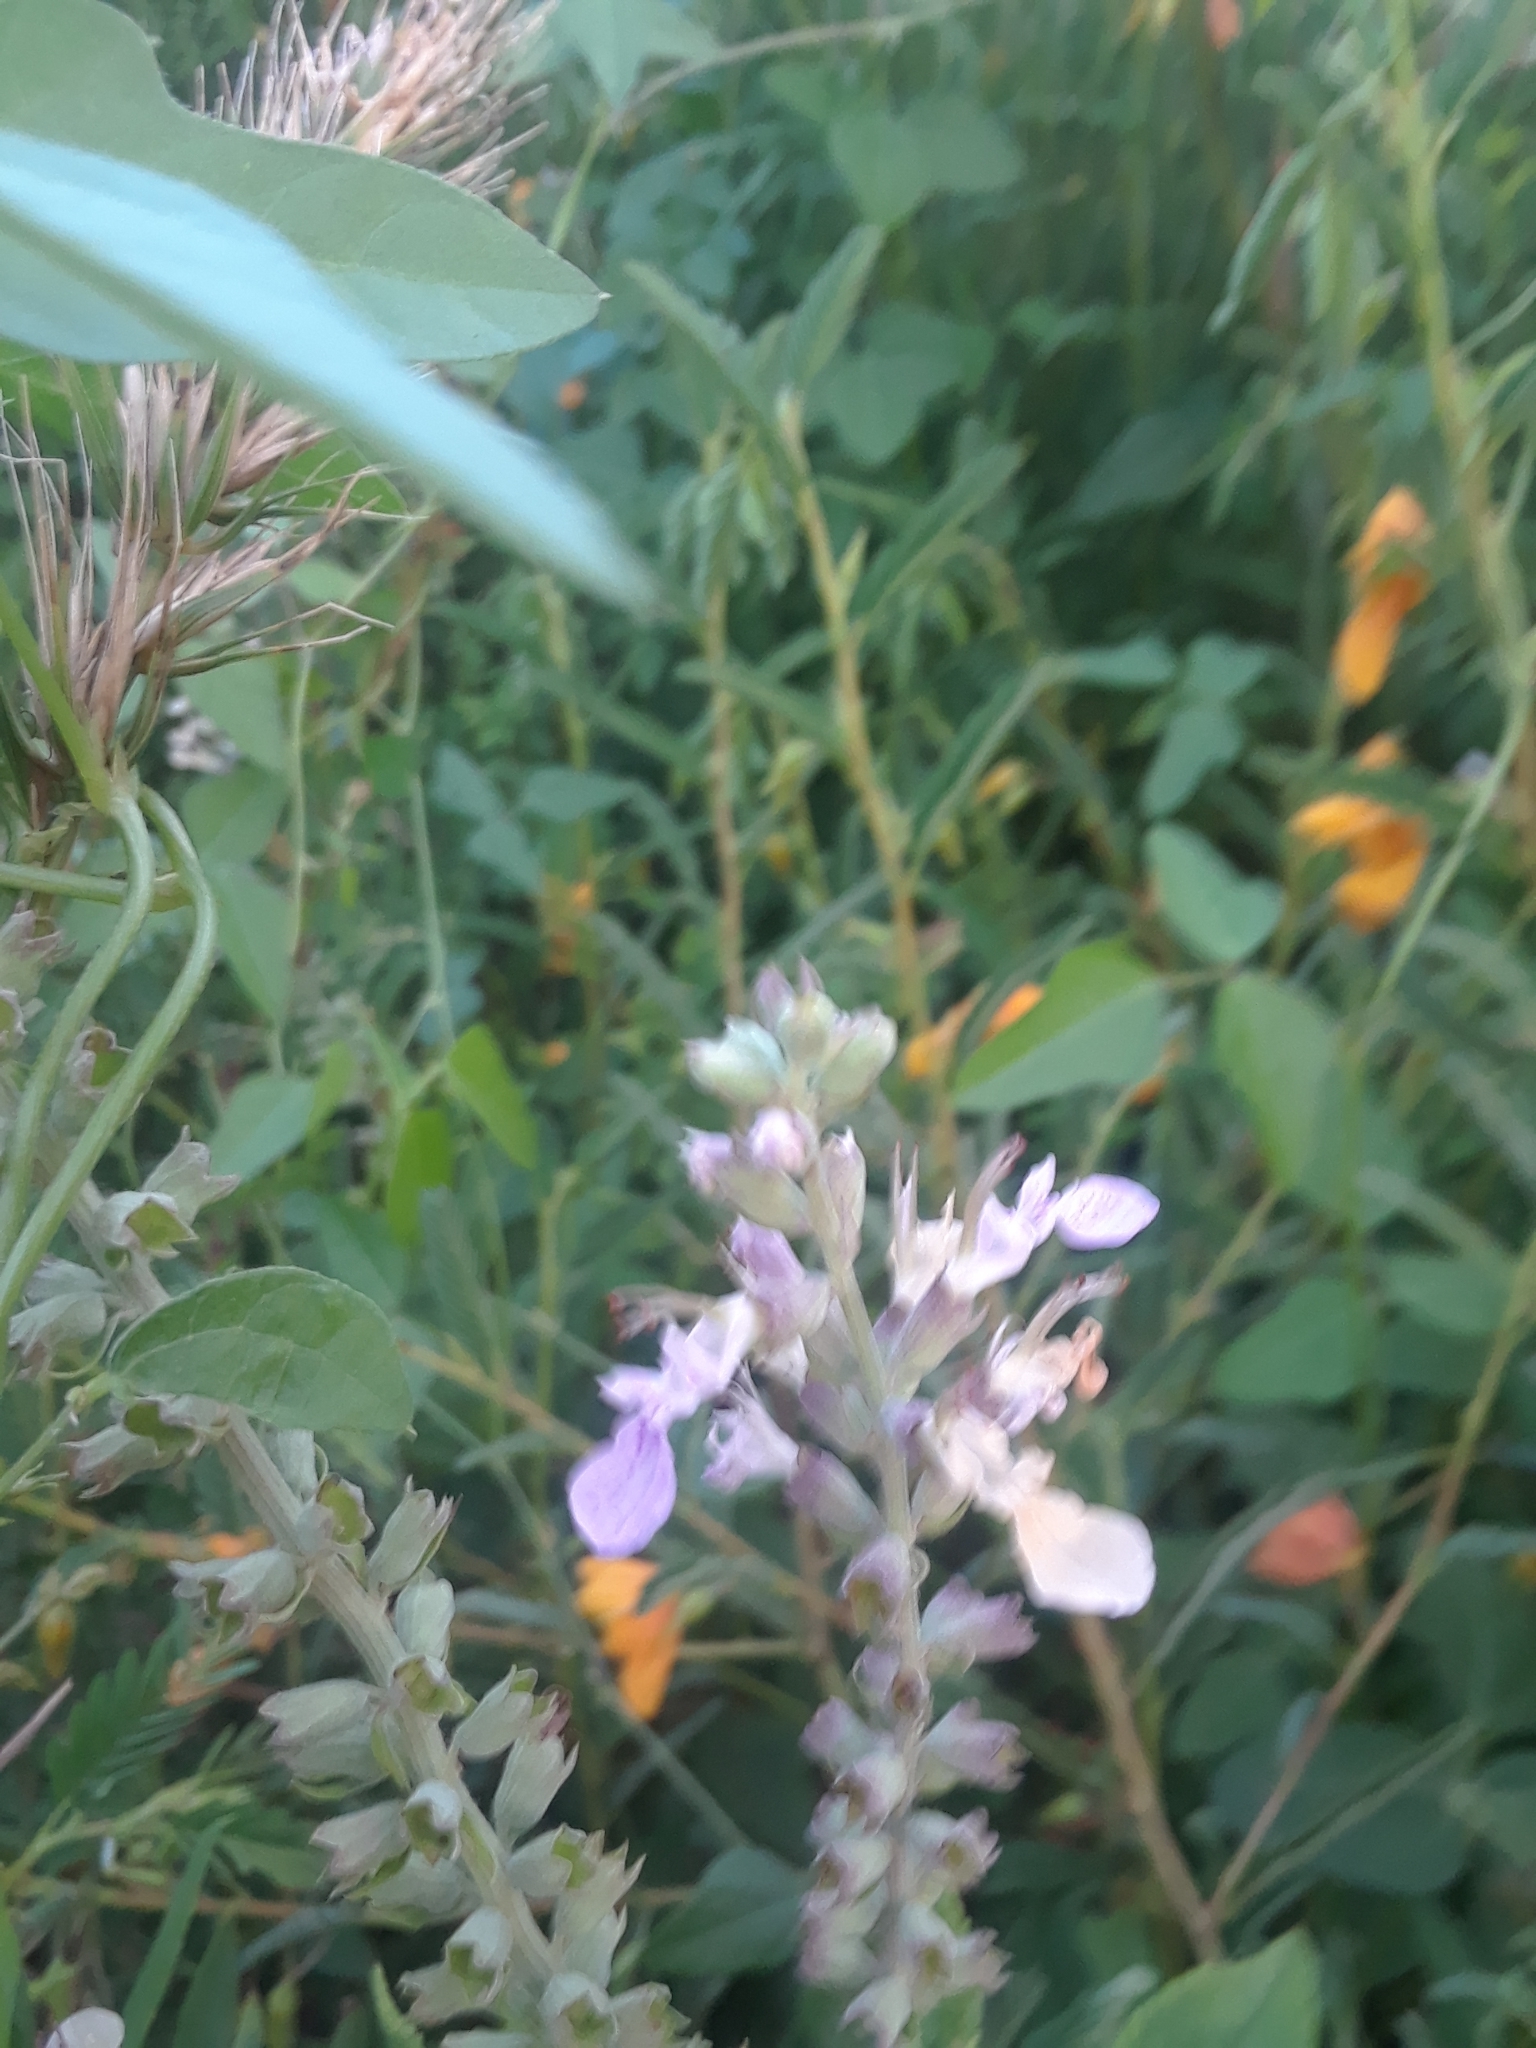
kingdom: Plantae
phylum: Tracheophyta
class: Magnoliopsida
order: Lamiales
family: Lamiaceae
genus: Teucrium
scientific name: Teucrium canadense
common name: American germander
